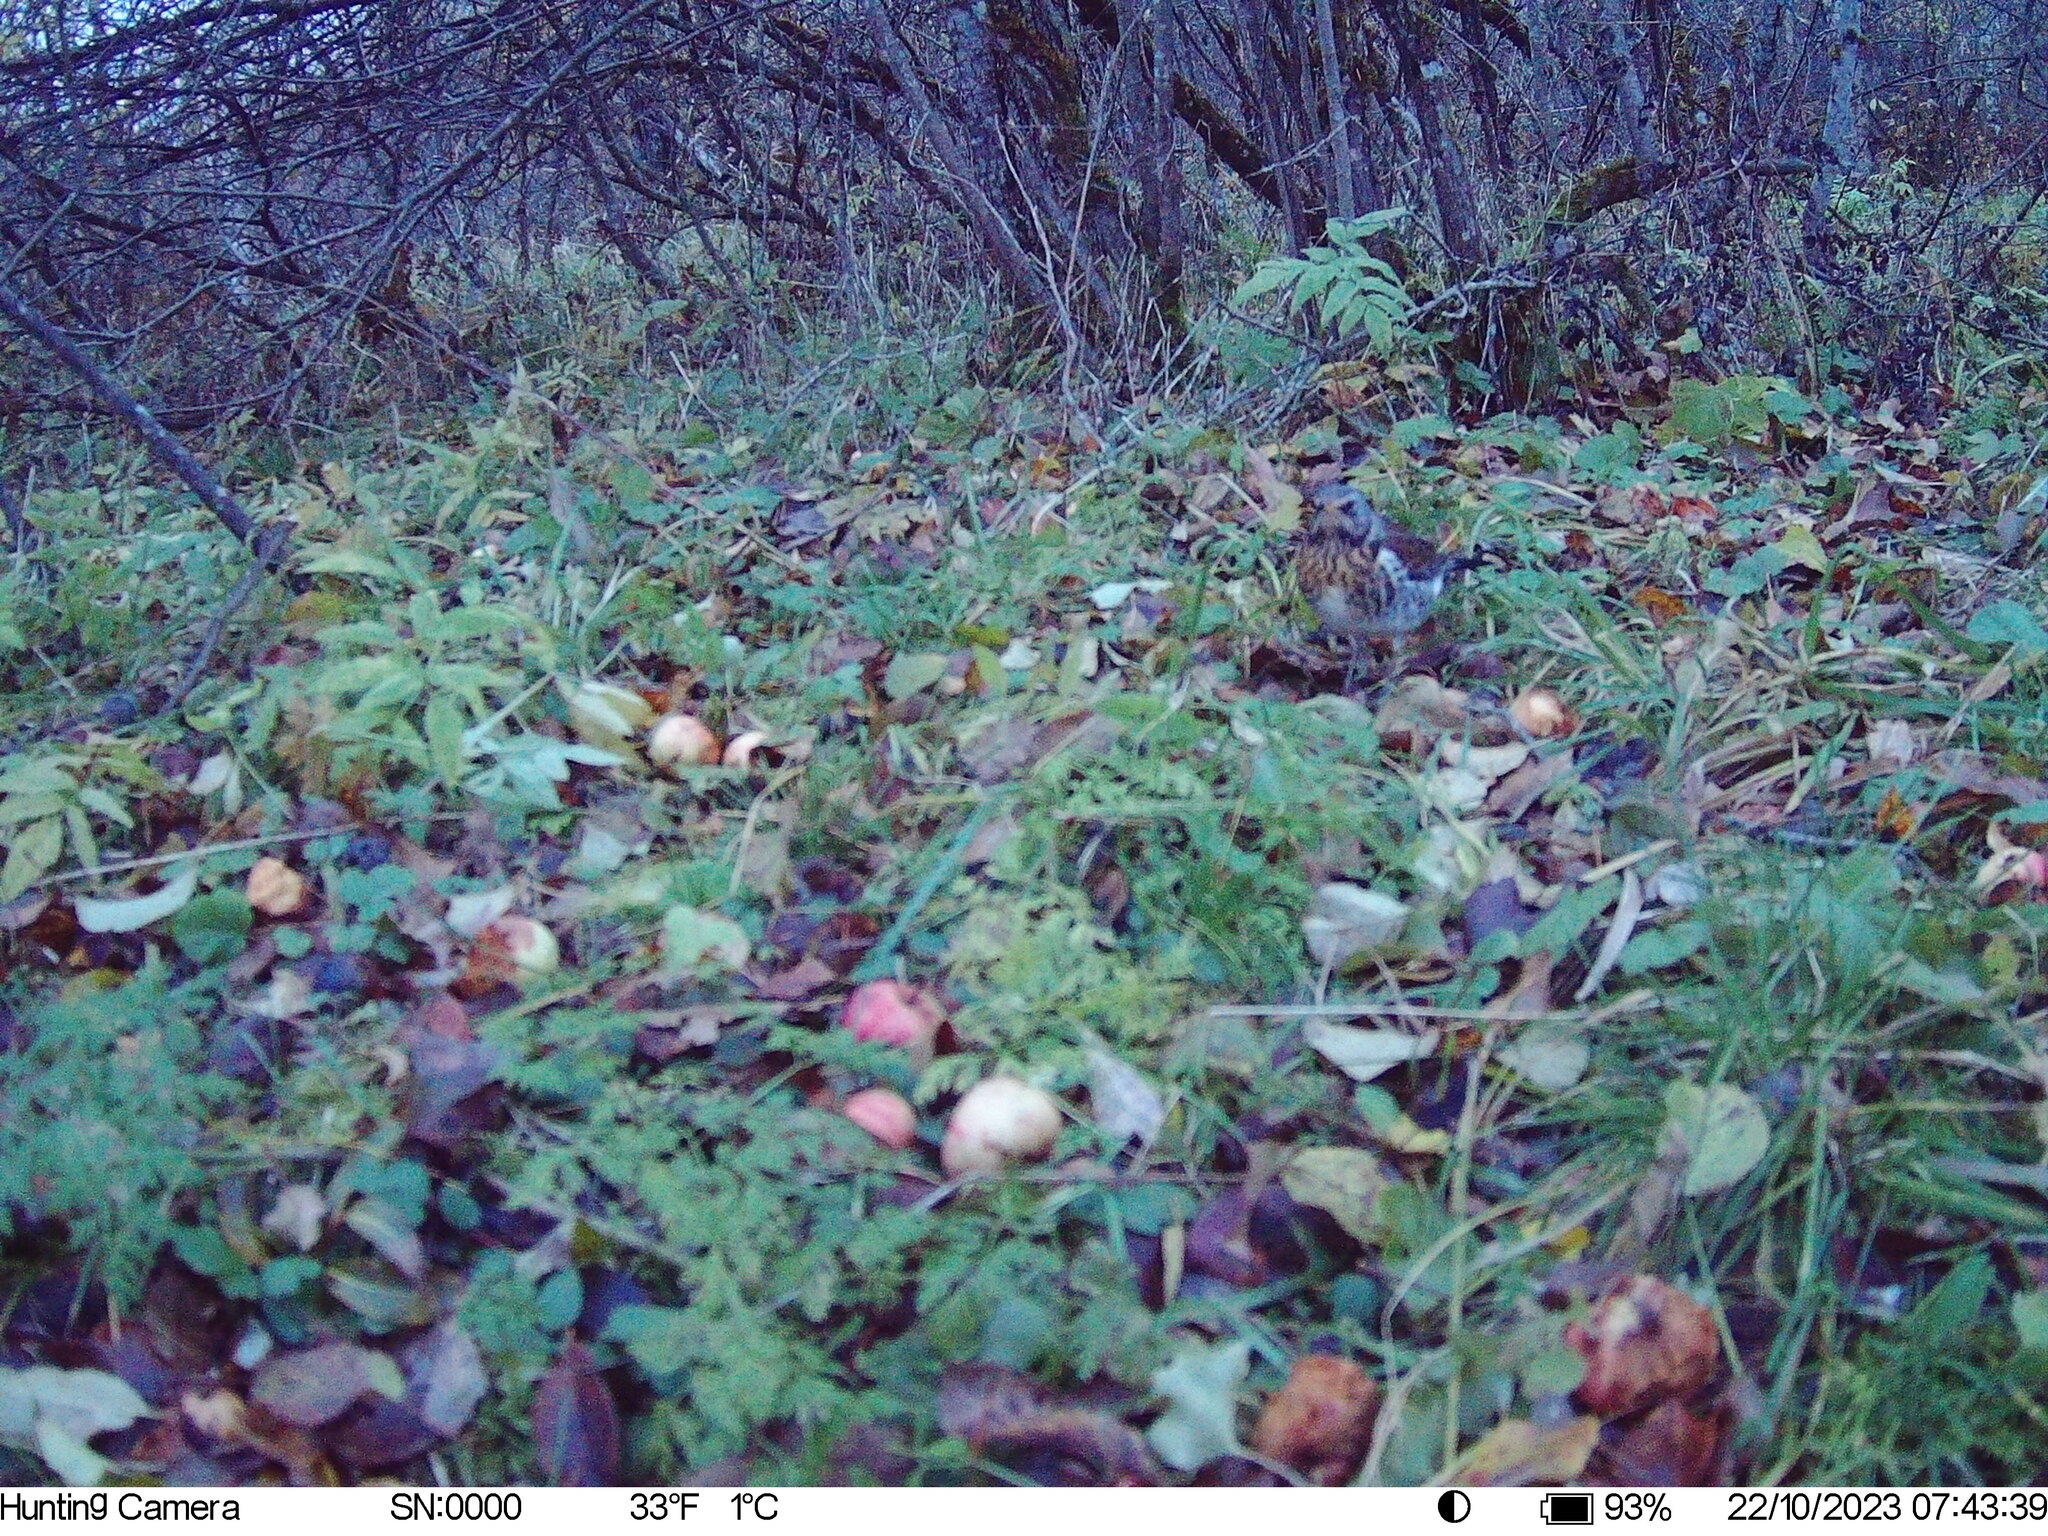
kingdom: Animalia
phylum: Chordata
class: Aves
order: Passeriformes
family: Turdidae
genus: Turdus
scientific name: Turdus pilaris
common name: Fieldfare
